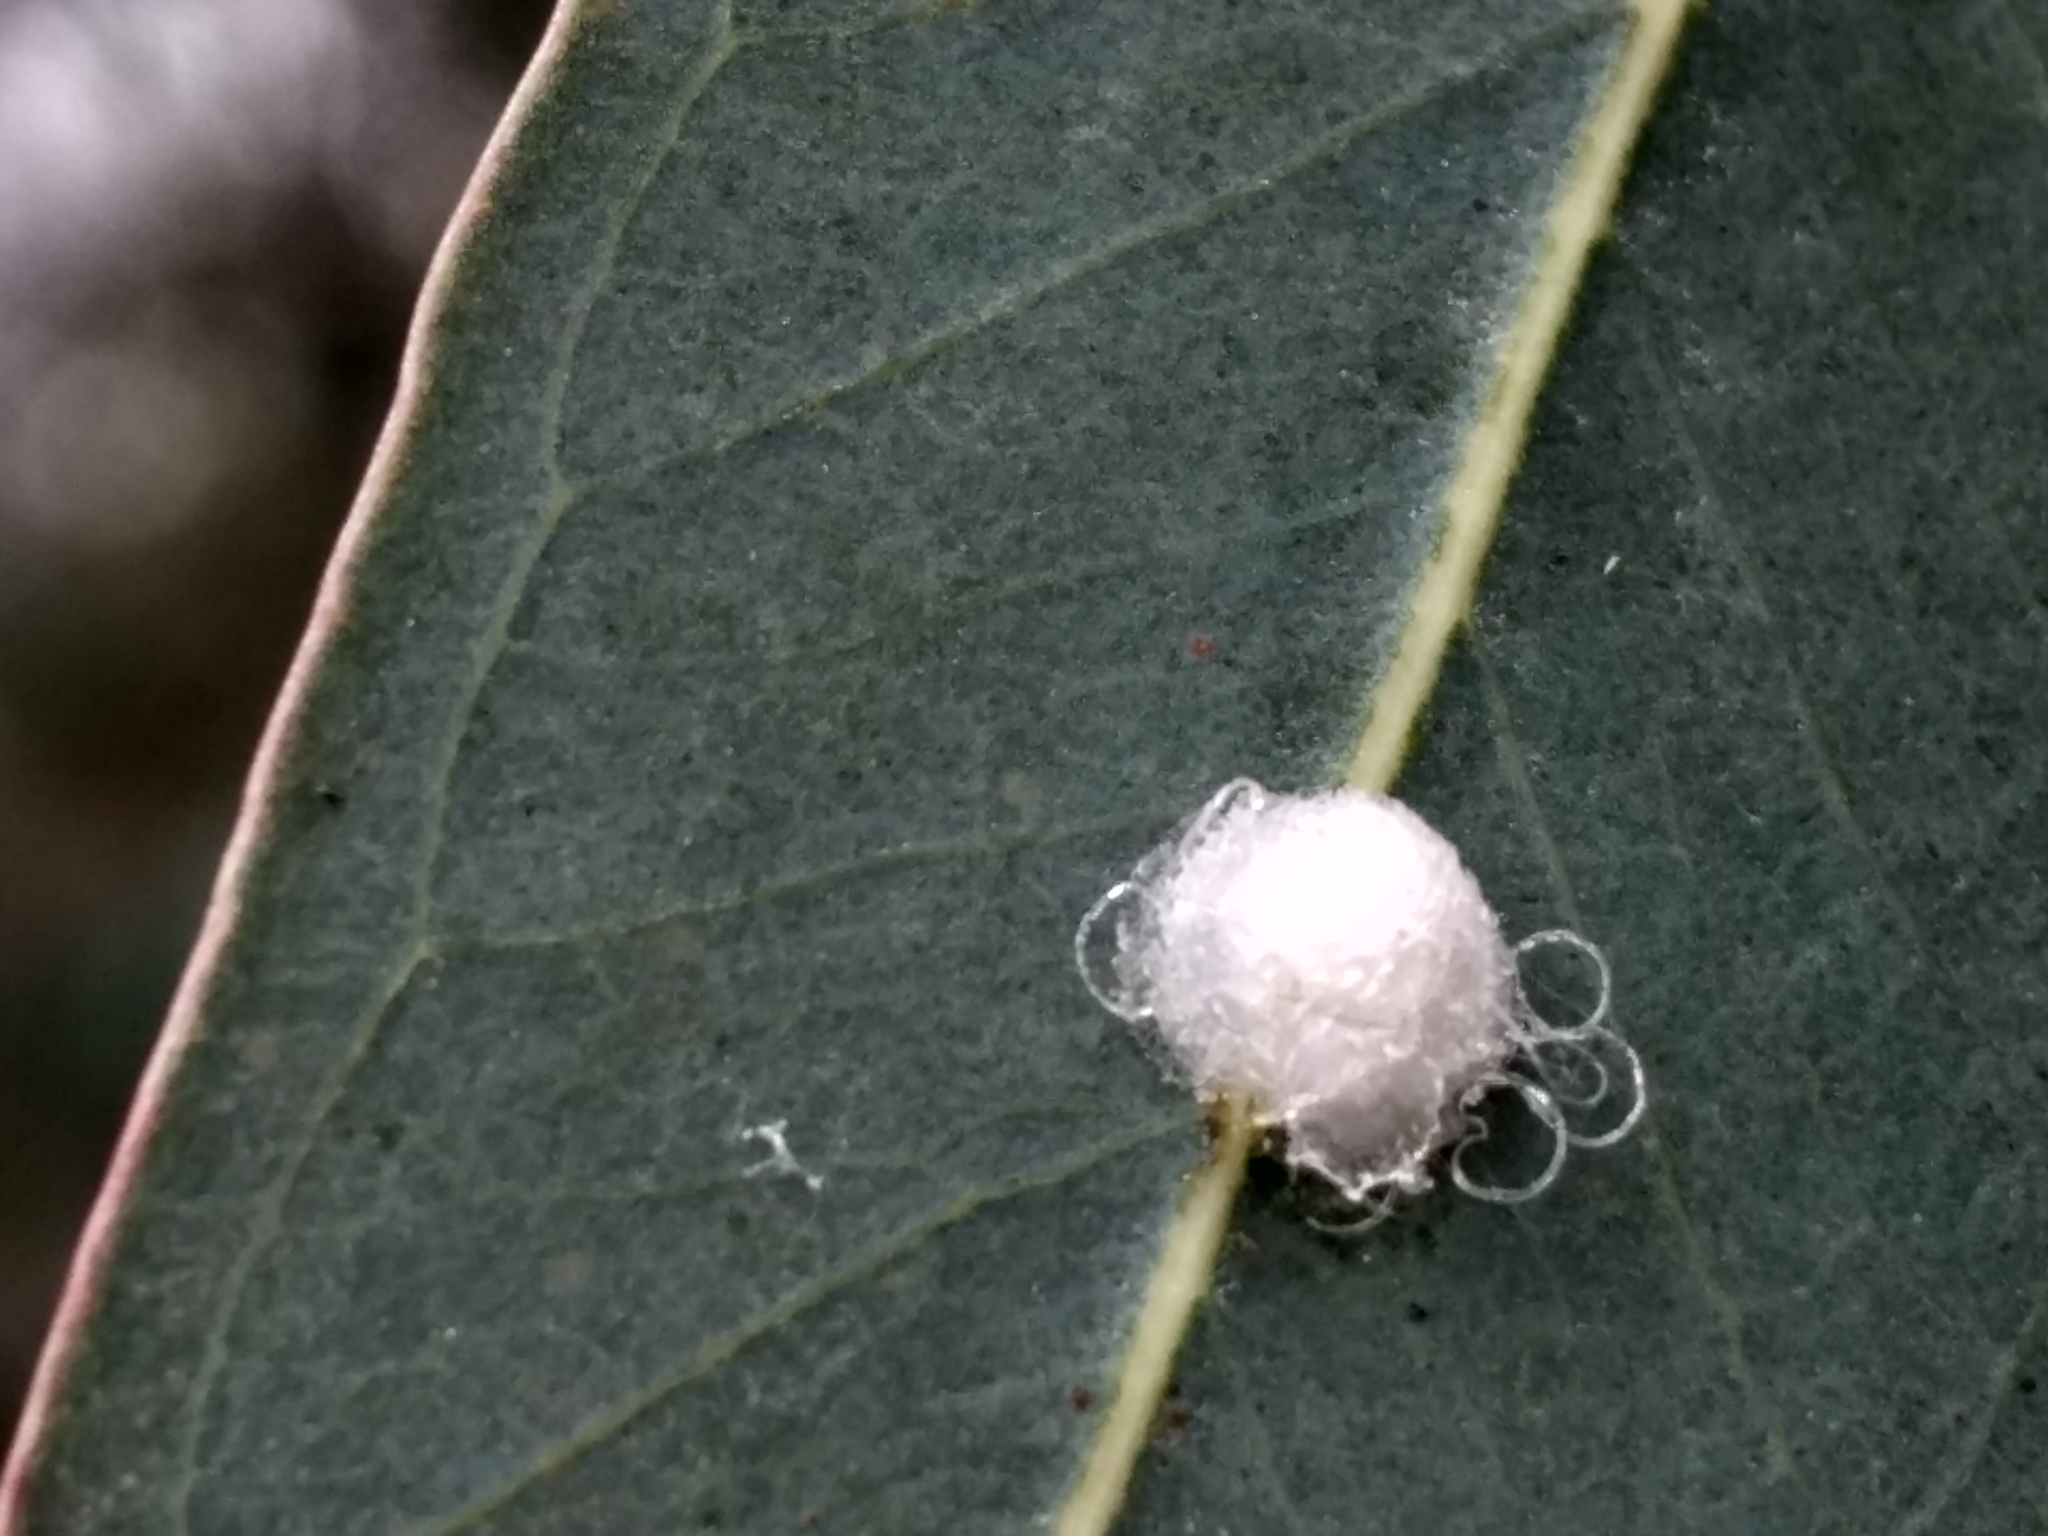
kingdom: Animalia
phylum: Arthropoda
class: Insecta
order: Hemiptera
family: Aphalaridae
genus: Glycaspis
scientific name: Glycaspis brimblecombei
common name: Red gum lerp psyllid
